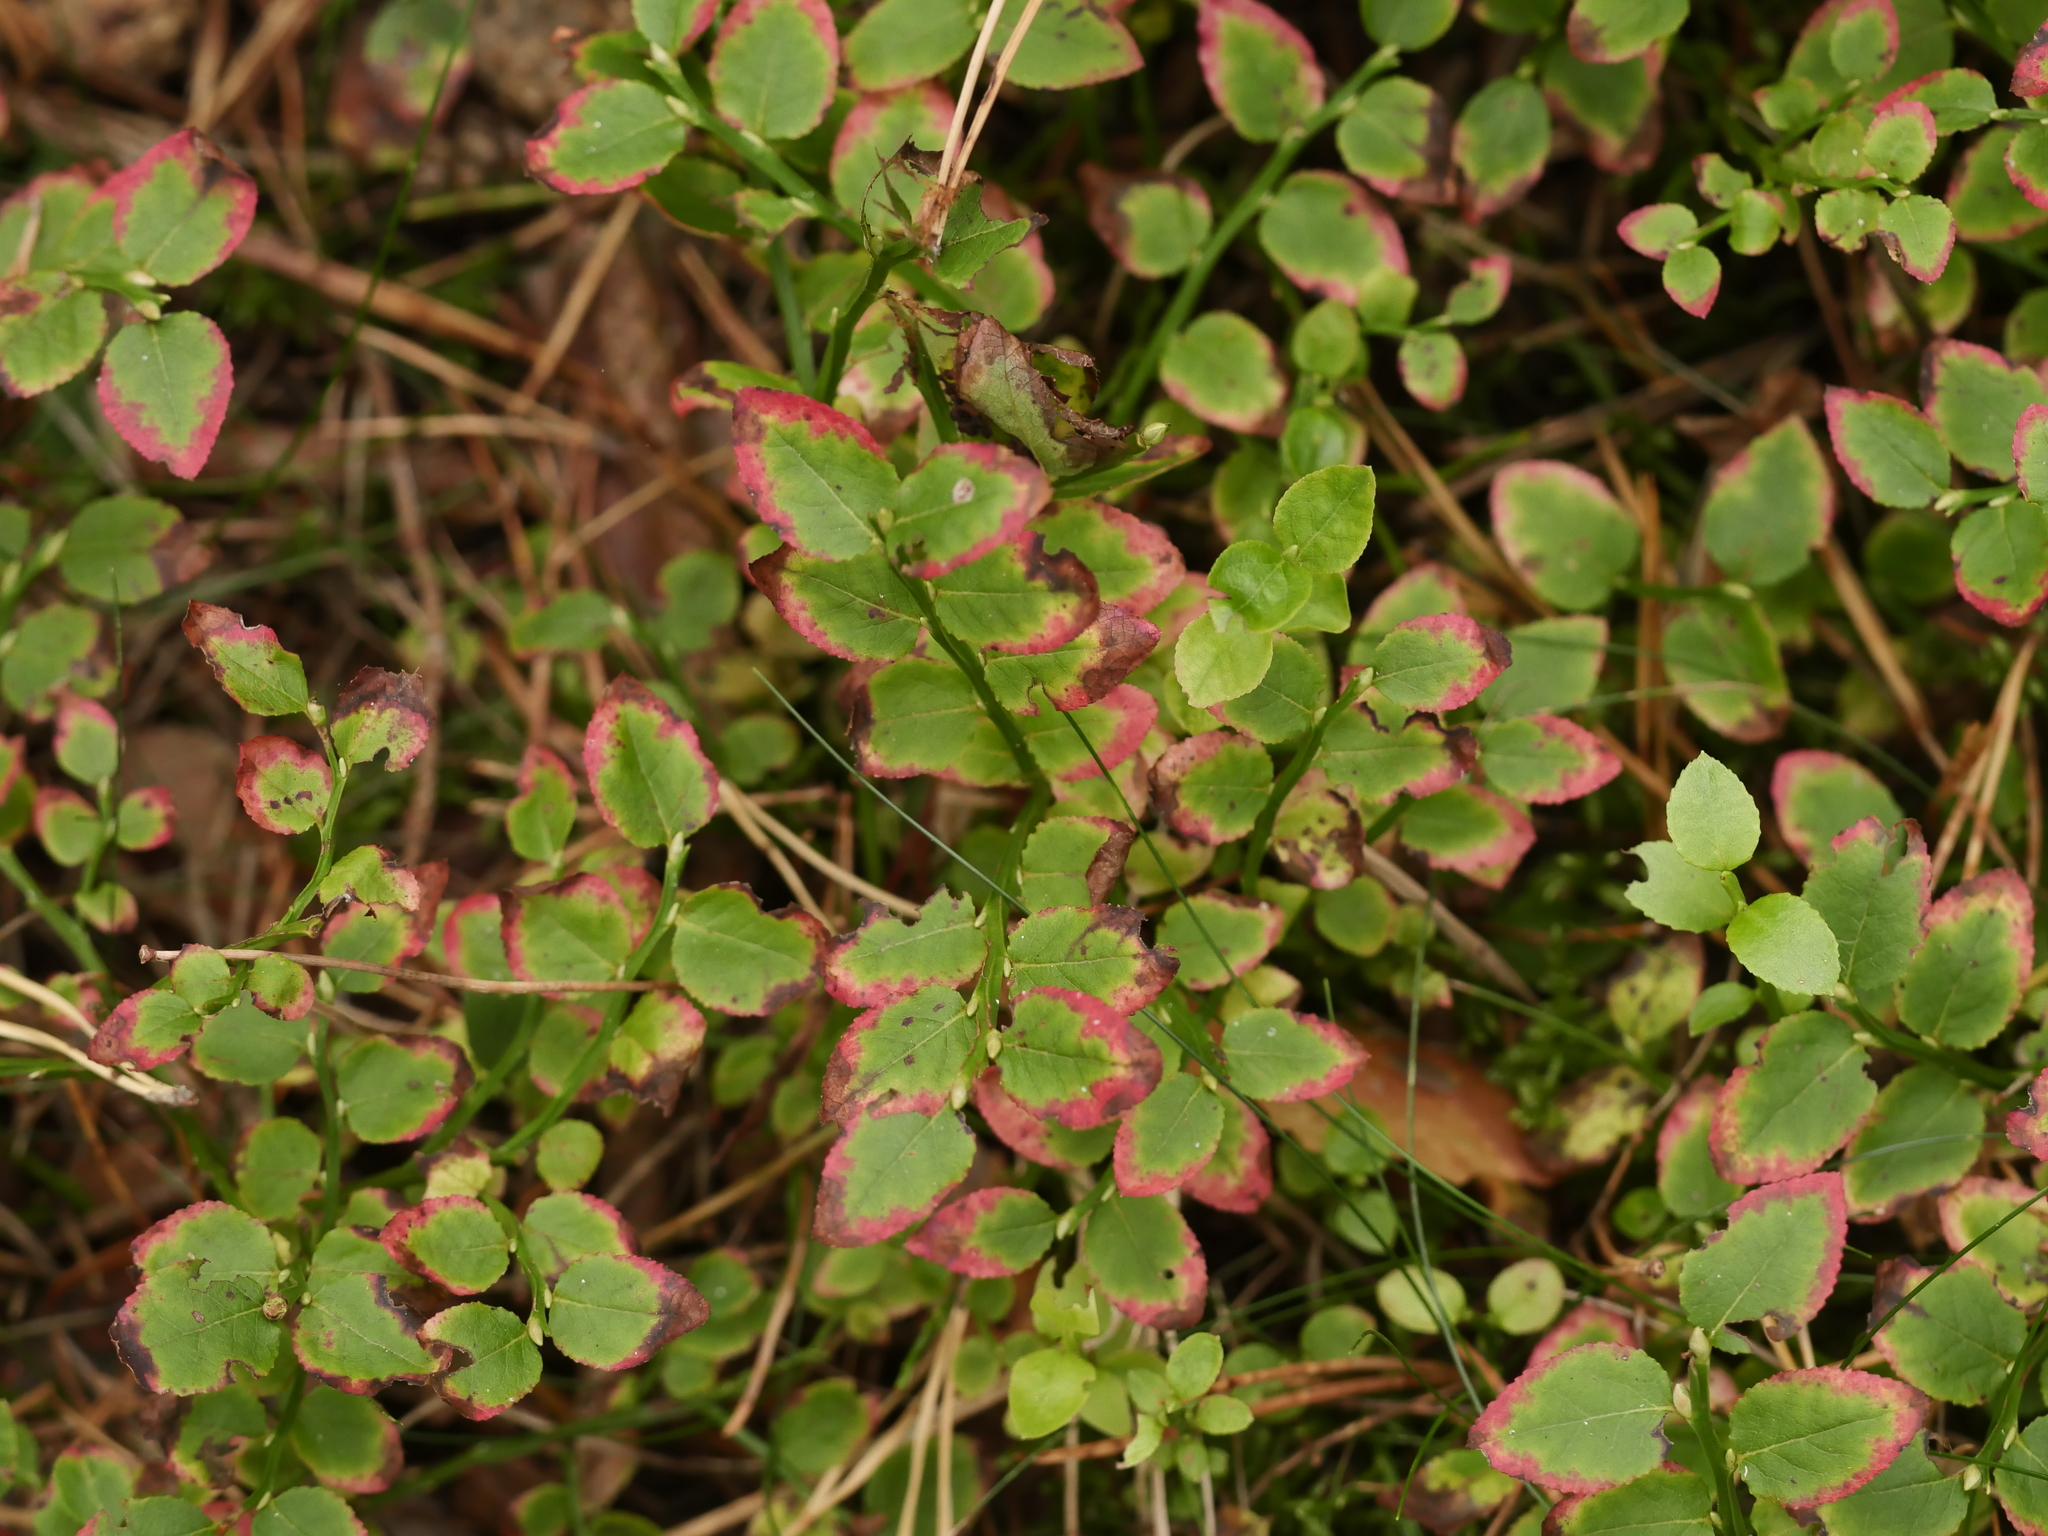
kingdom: Plantae
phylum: Tracheophyta
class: Magnoliopsida
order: Ericales
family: Ericaceae
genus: Vaccinium
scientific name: Vaccinium myrtillus
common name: Bilberry
